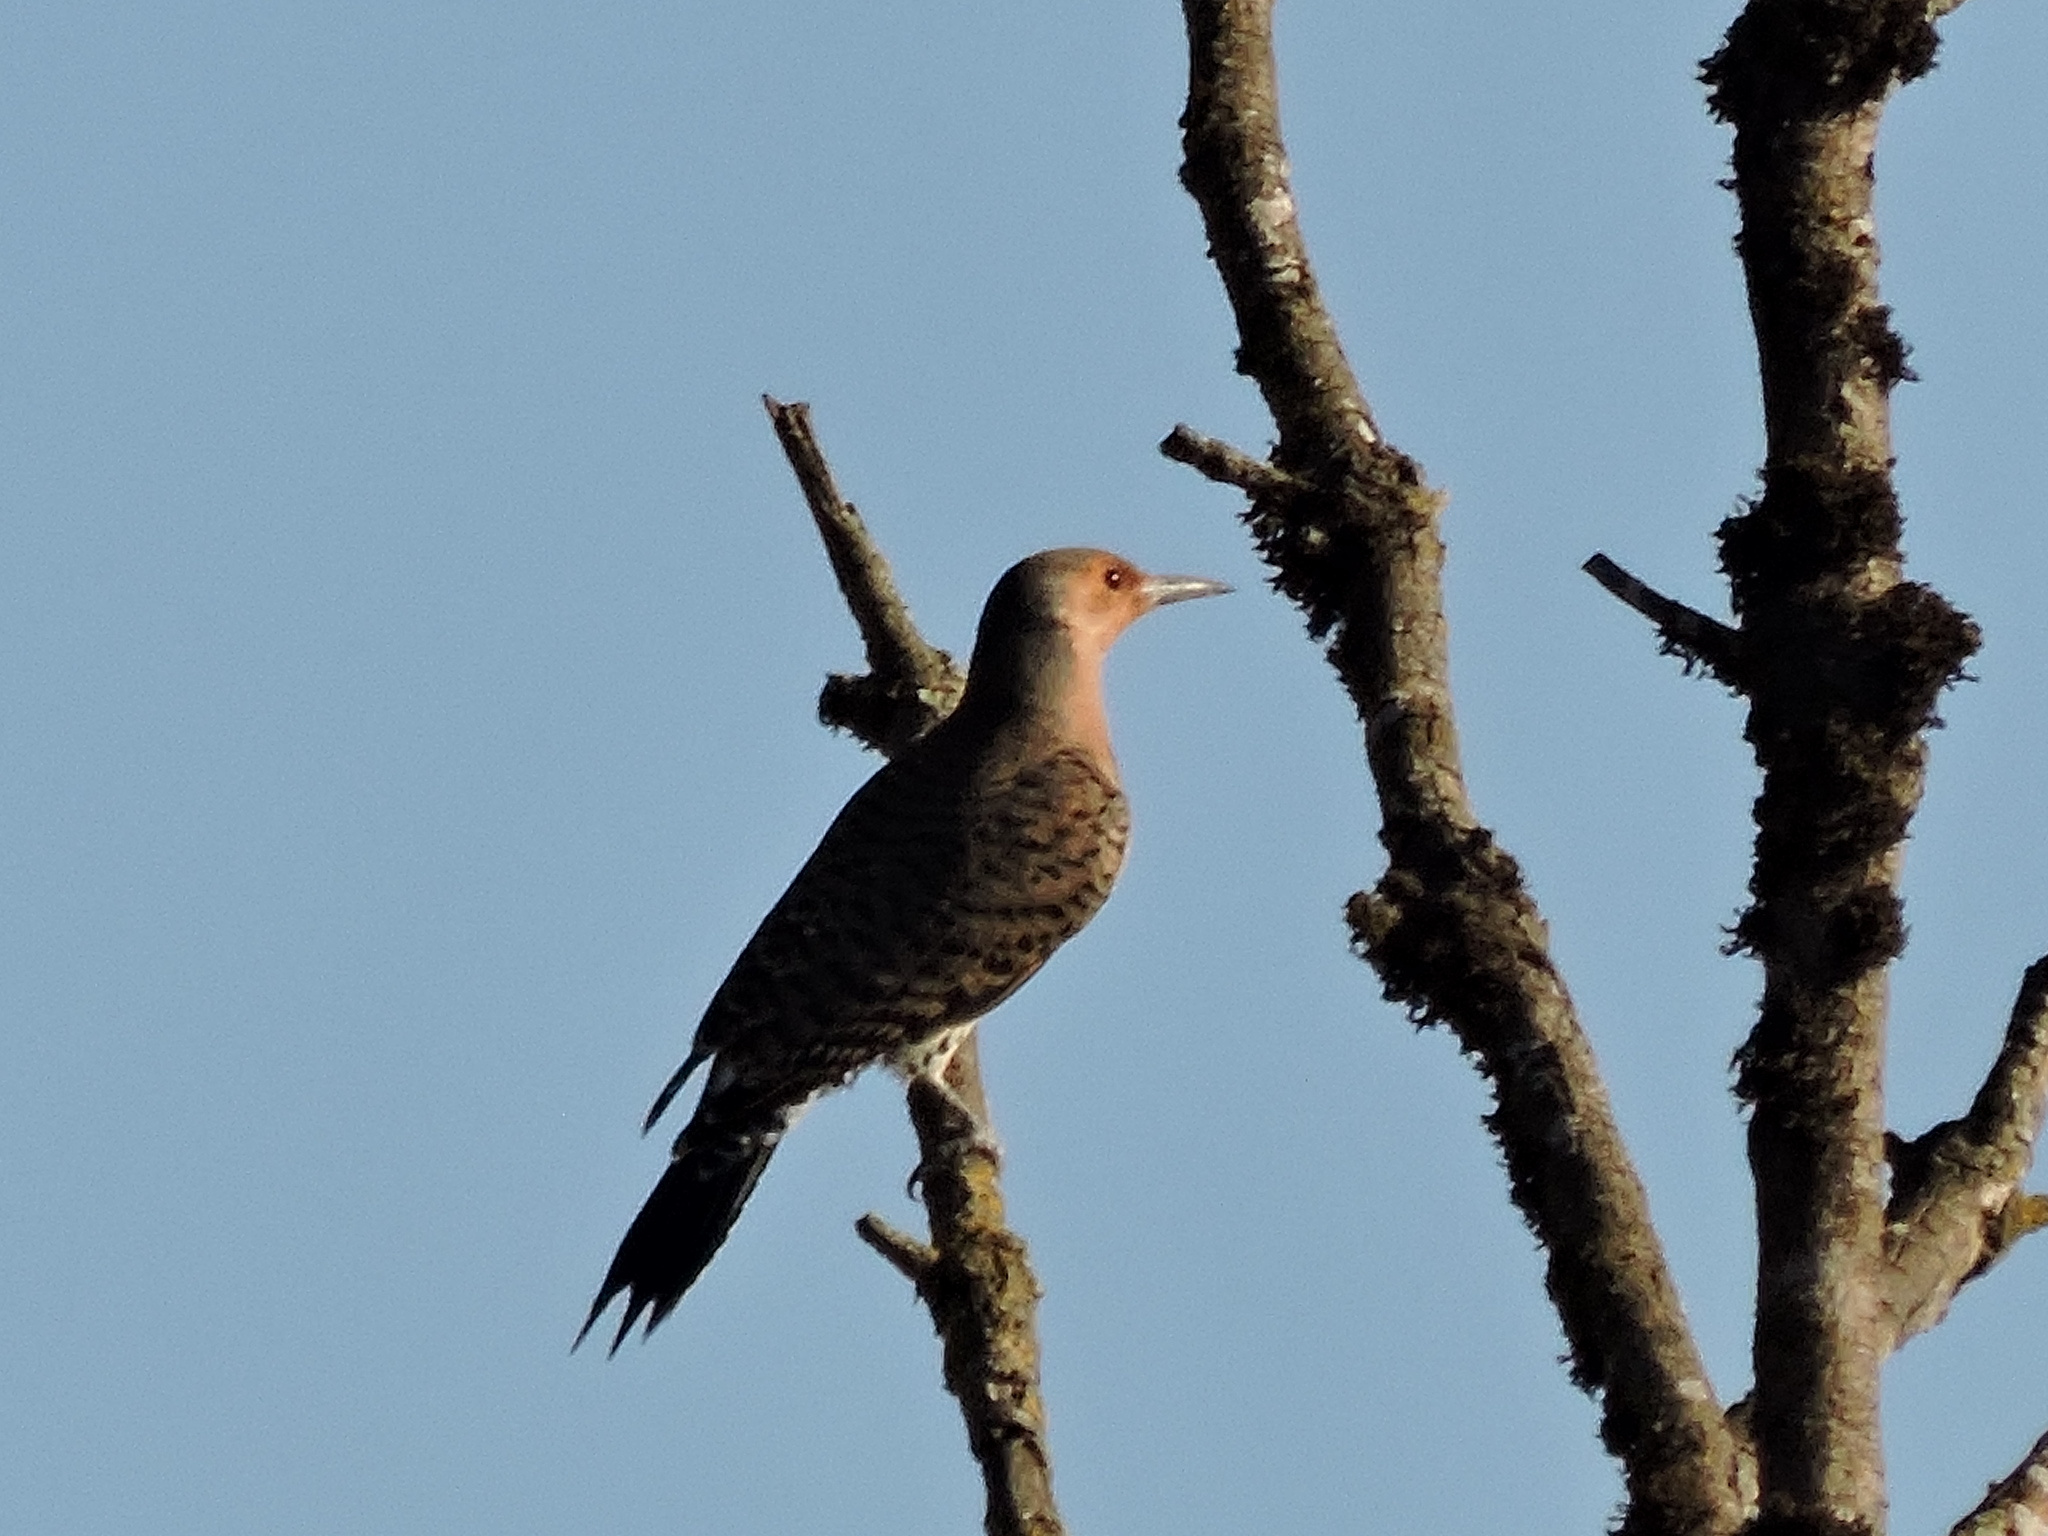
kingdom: Animalia
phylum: Chordata
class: Aves
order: Piciformes
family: Picidae
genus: Colaptes
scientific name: Colaptes auratus
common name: Northern flicker
